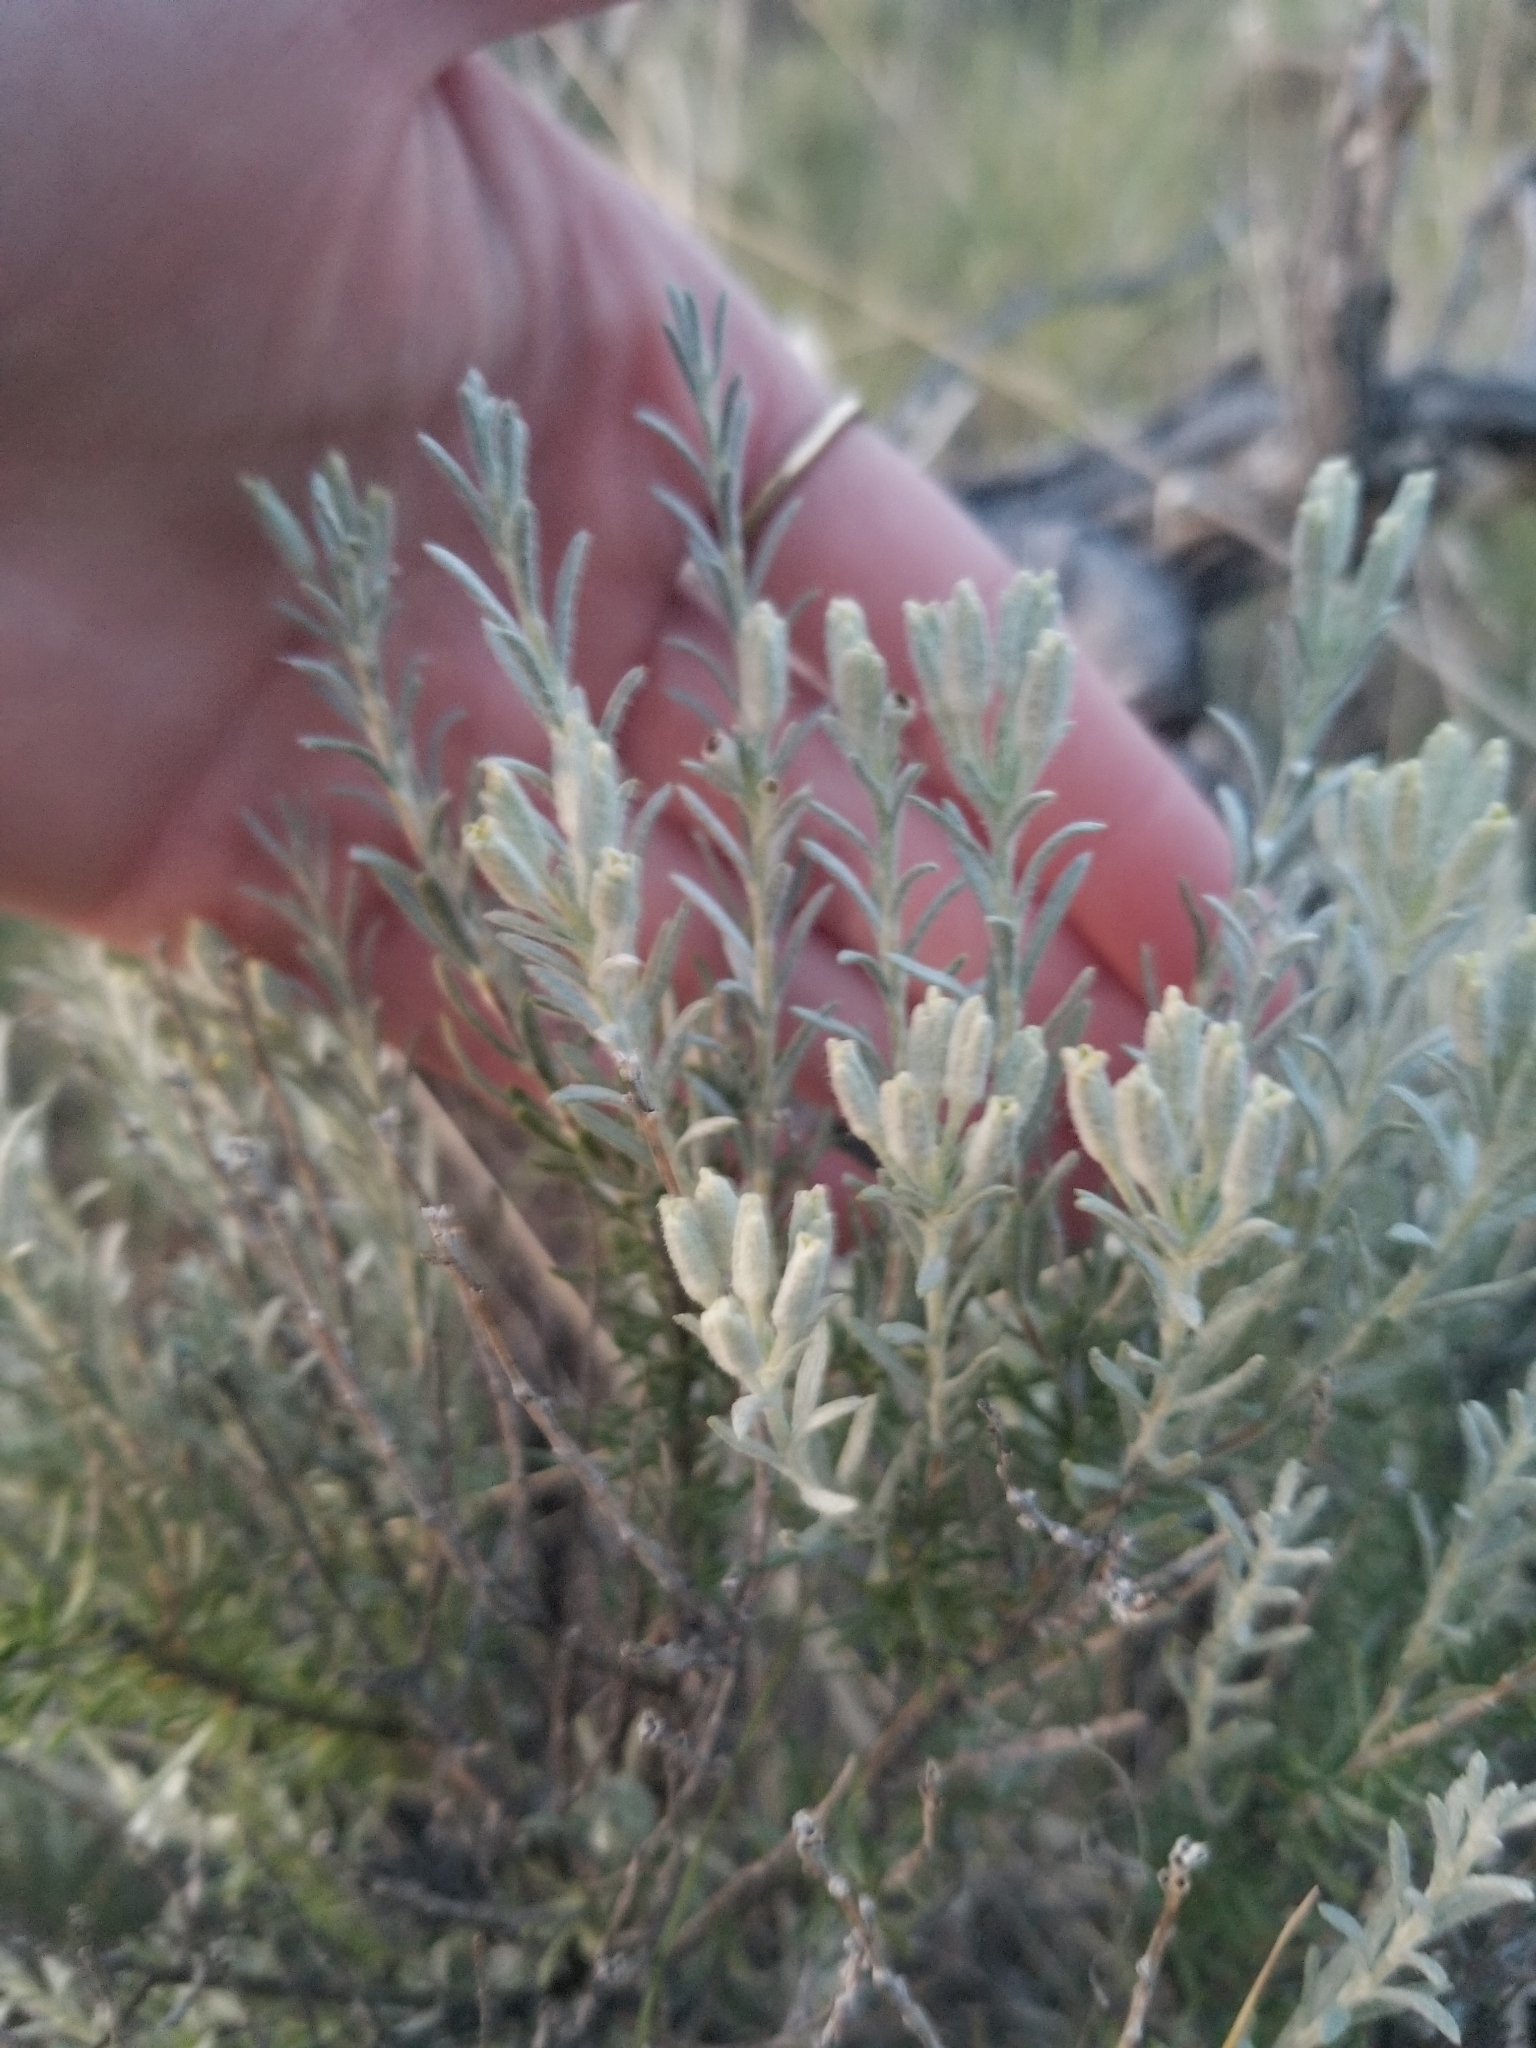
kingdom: Plantae
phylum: Tracheophyta
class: Magnoliopsida
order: Asterales
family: Asteraceae
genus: Tetradymia
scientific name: Tetradymia canescens
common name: Spineless horsebrush
